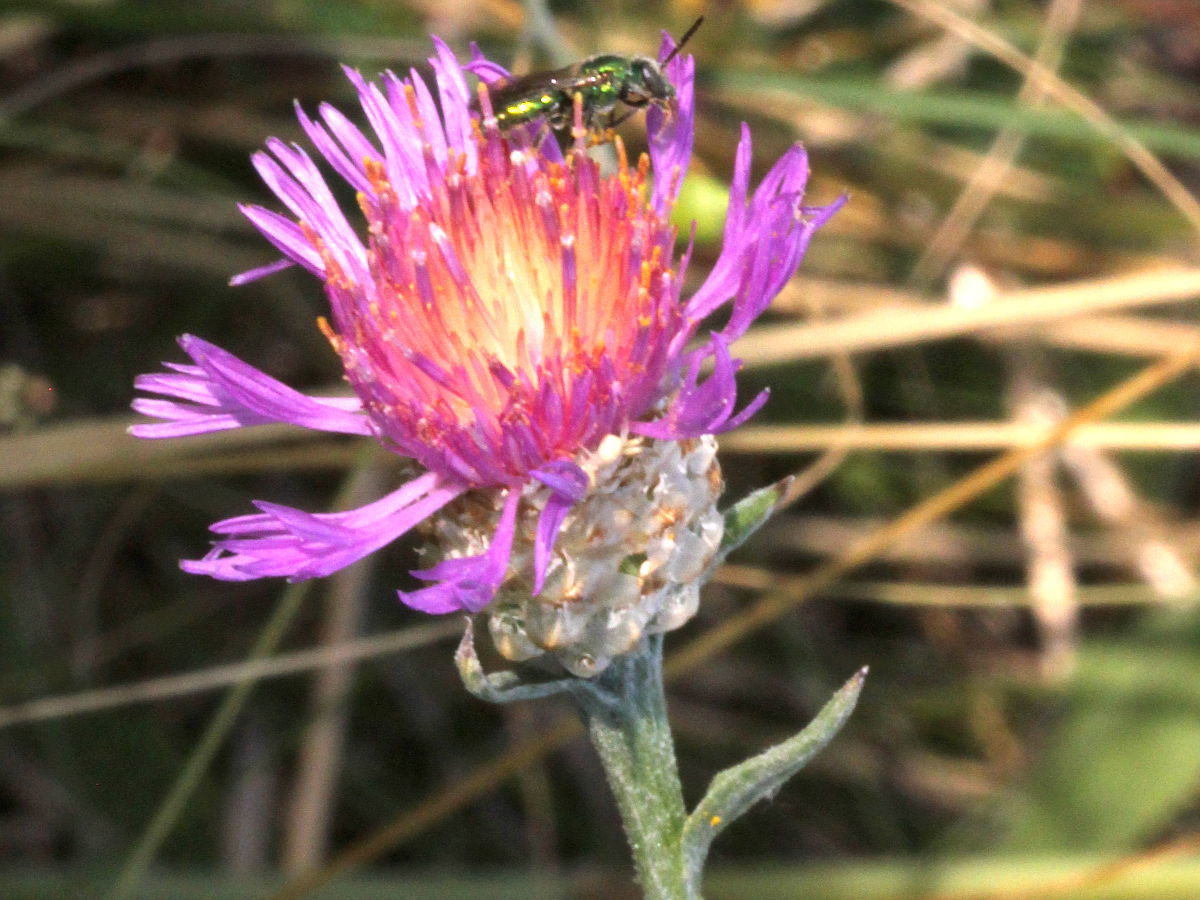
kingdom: Plantae
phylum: Tracheophyta
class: Magnoliopsida
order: Asterales
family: Asteraceae
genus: Centaurea
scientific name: Centaurea jacea
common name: Brown knapweed
